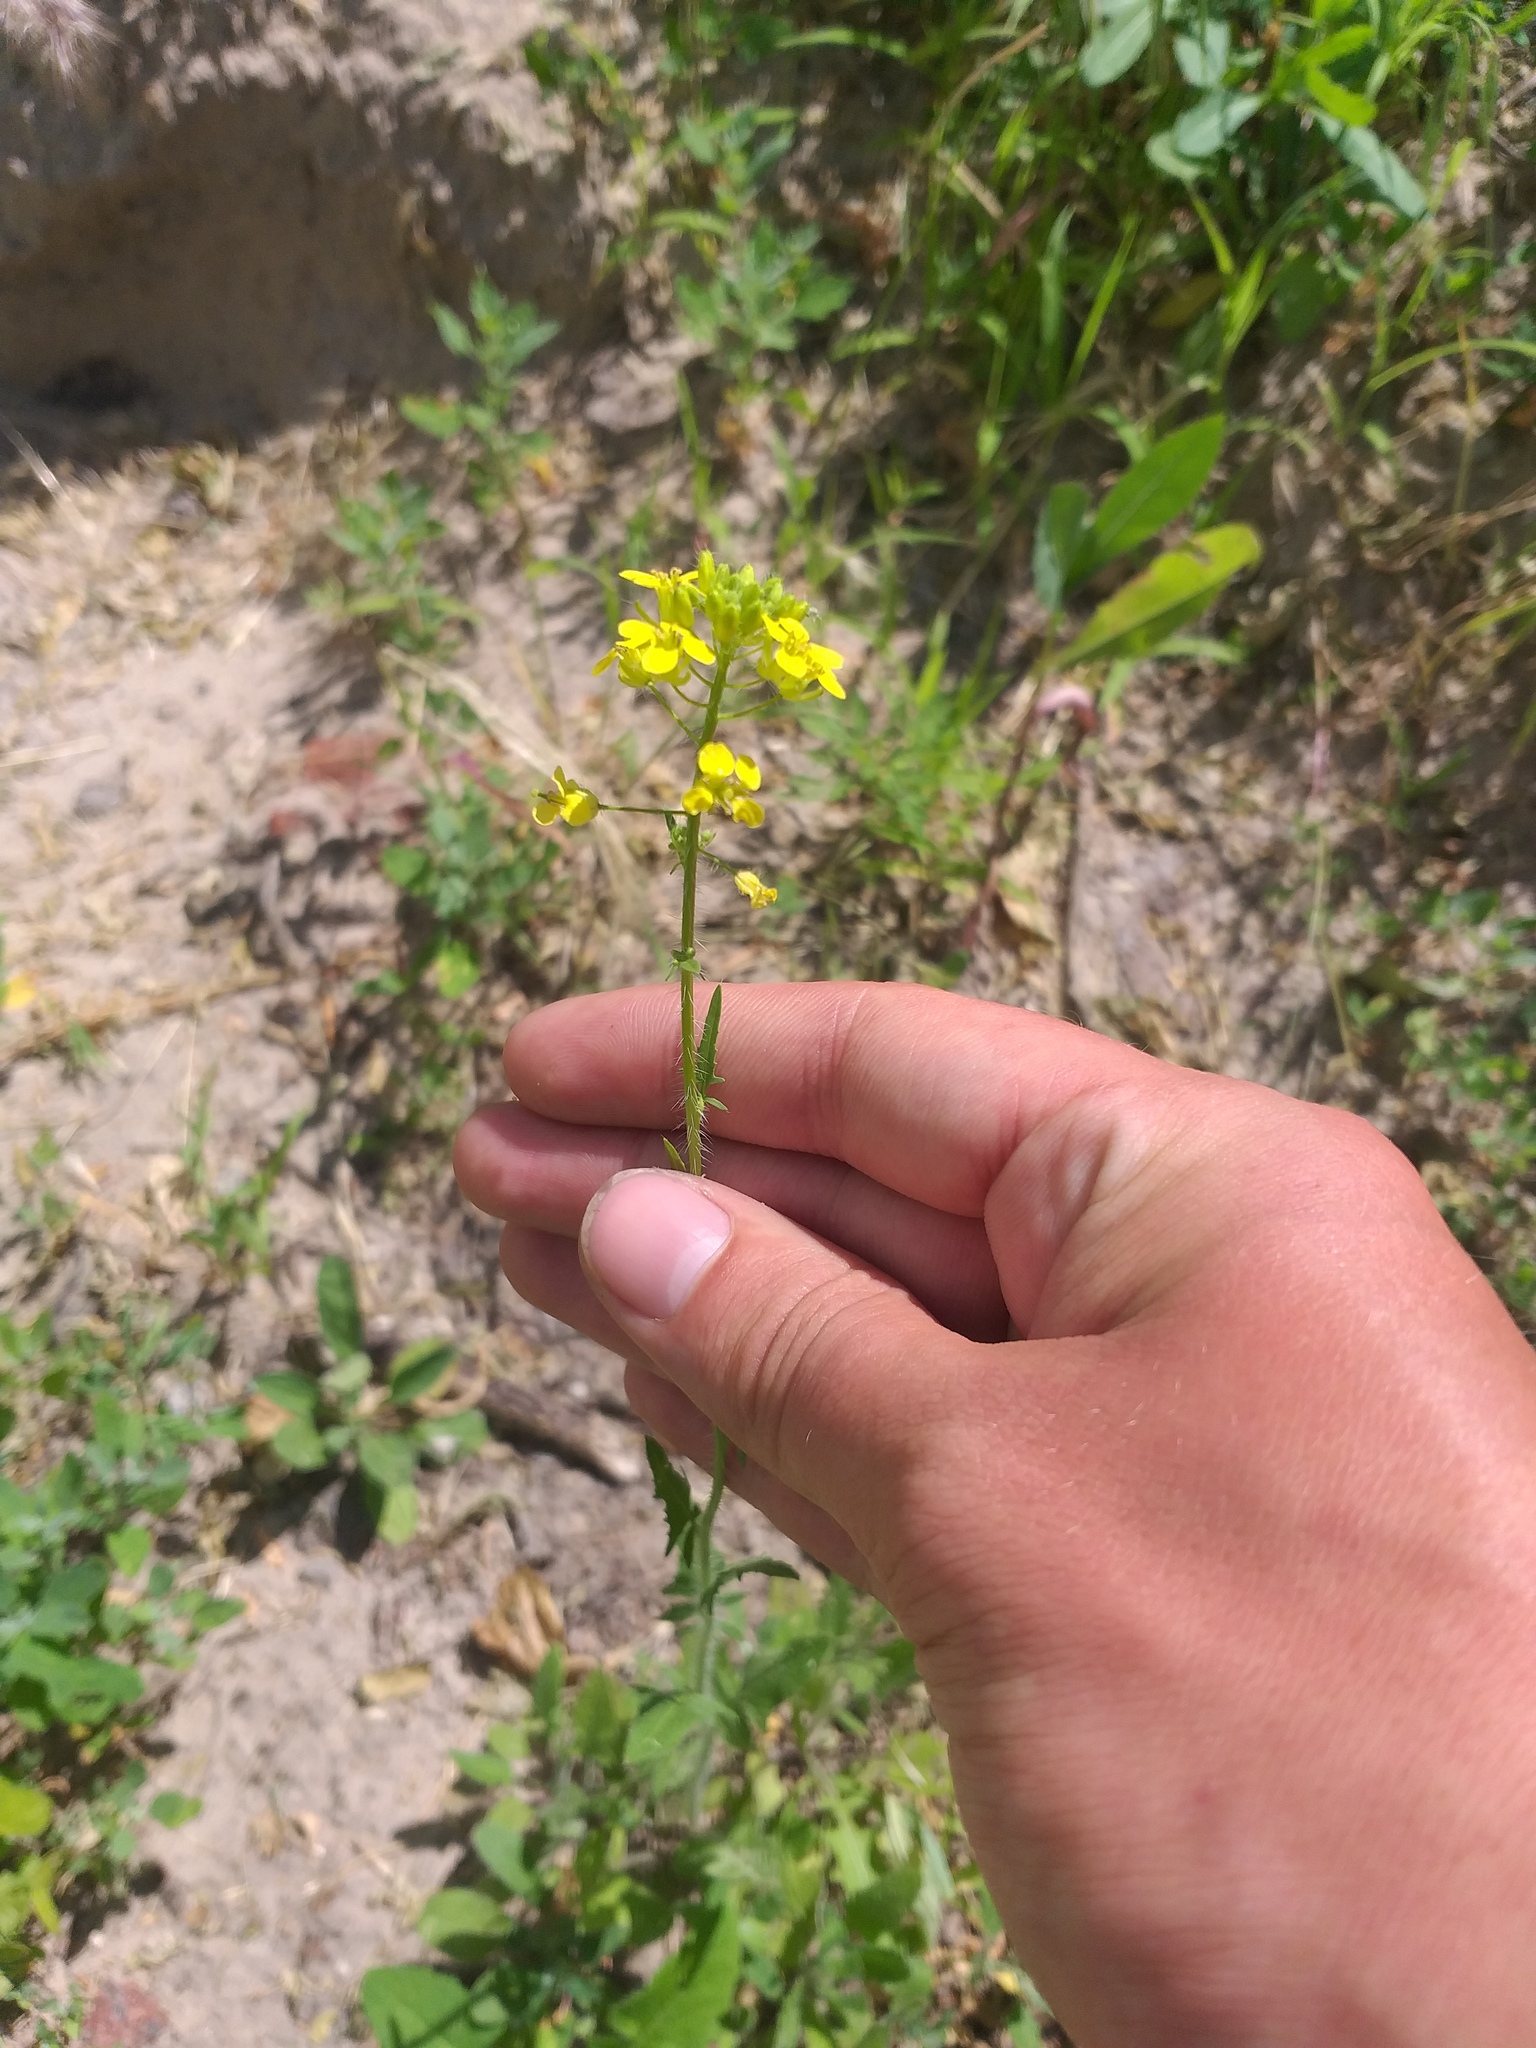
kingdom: Plantae
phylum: Tracheophyta
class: Magnoliopsida
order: Brassicales
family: Brassicaceae
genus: Sisymbrium
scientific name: Sisymbrium loeselii
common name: False london-rocket
